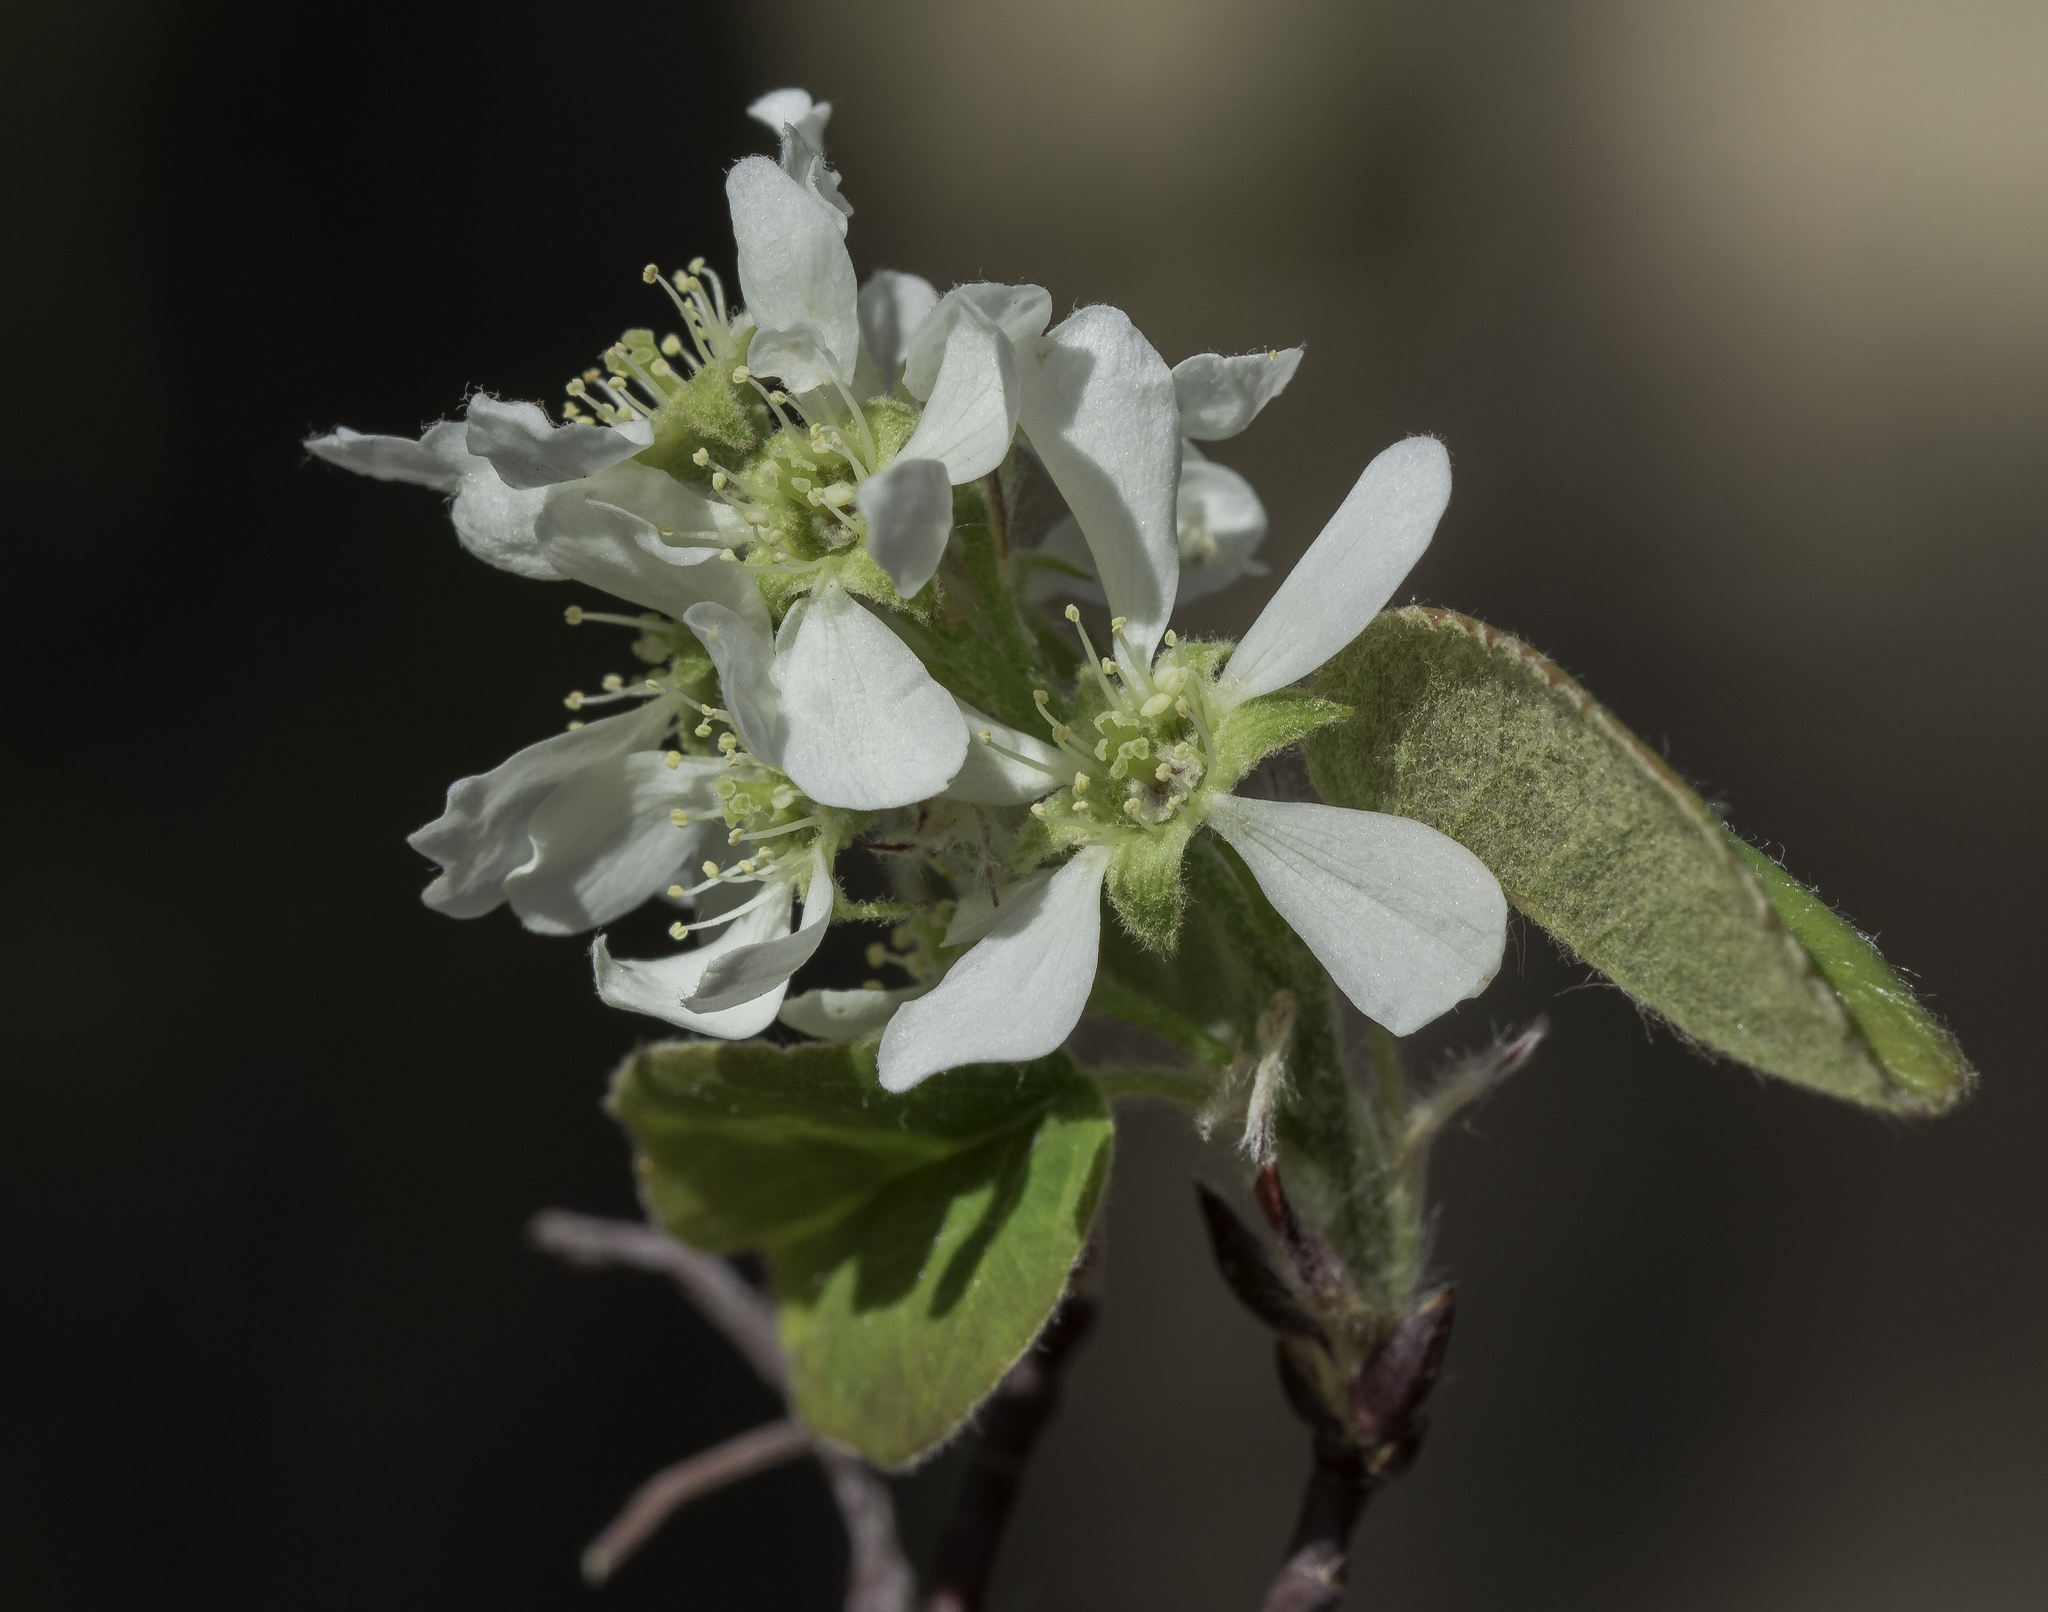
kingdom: Plantae
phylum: Tracheophyta
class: Magnoliopsida
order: Rosales
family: Rosaceae
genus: Amelanchier
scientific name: Amelanchier utahensis
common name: Utah serviceberry
